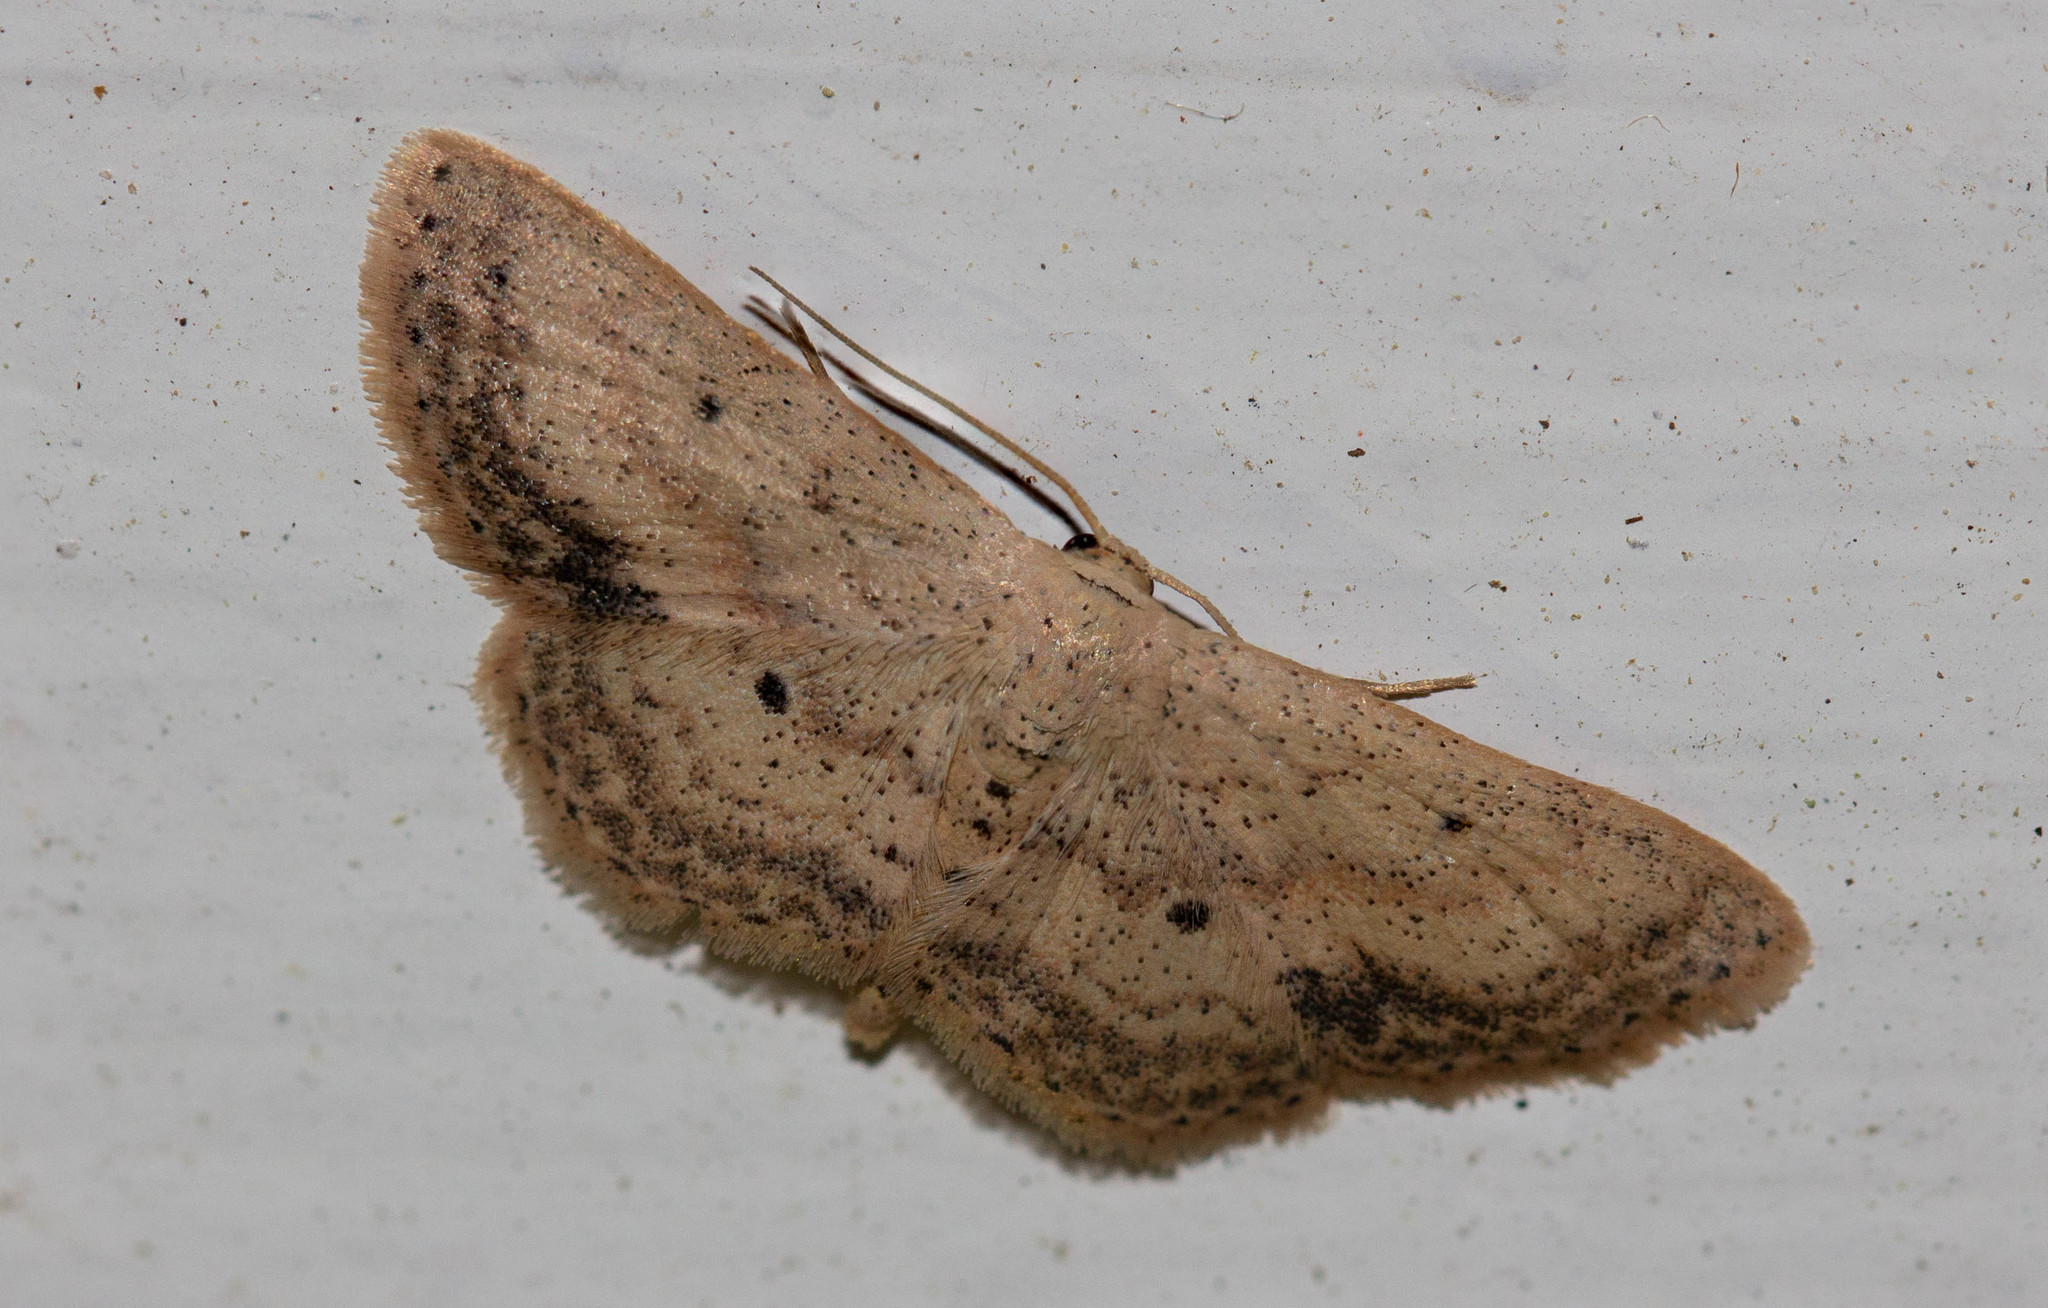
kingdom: Animalia
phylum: Arthropoda
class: Insecta
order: Lepidoptera
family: Geometridae
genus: Scopula
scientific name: Scopula aemulata
